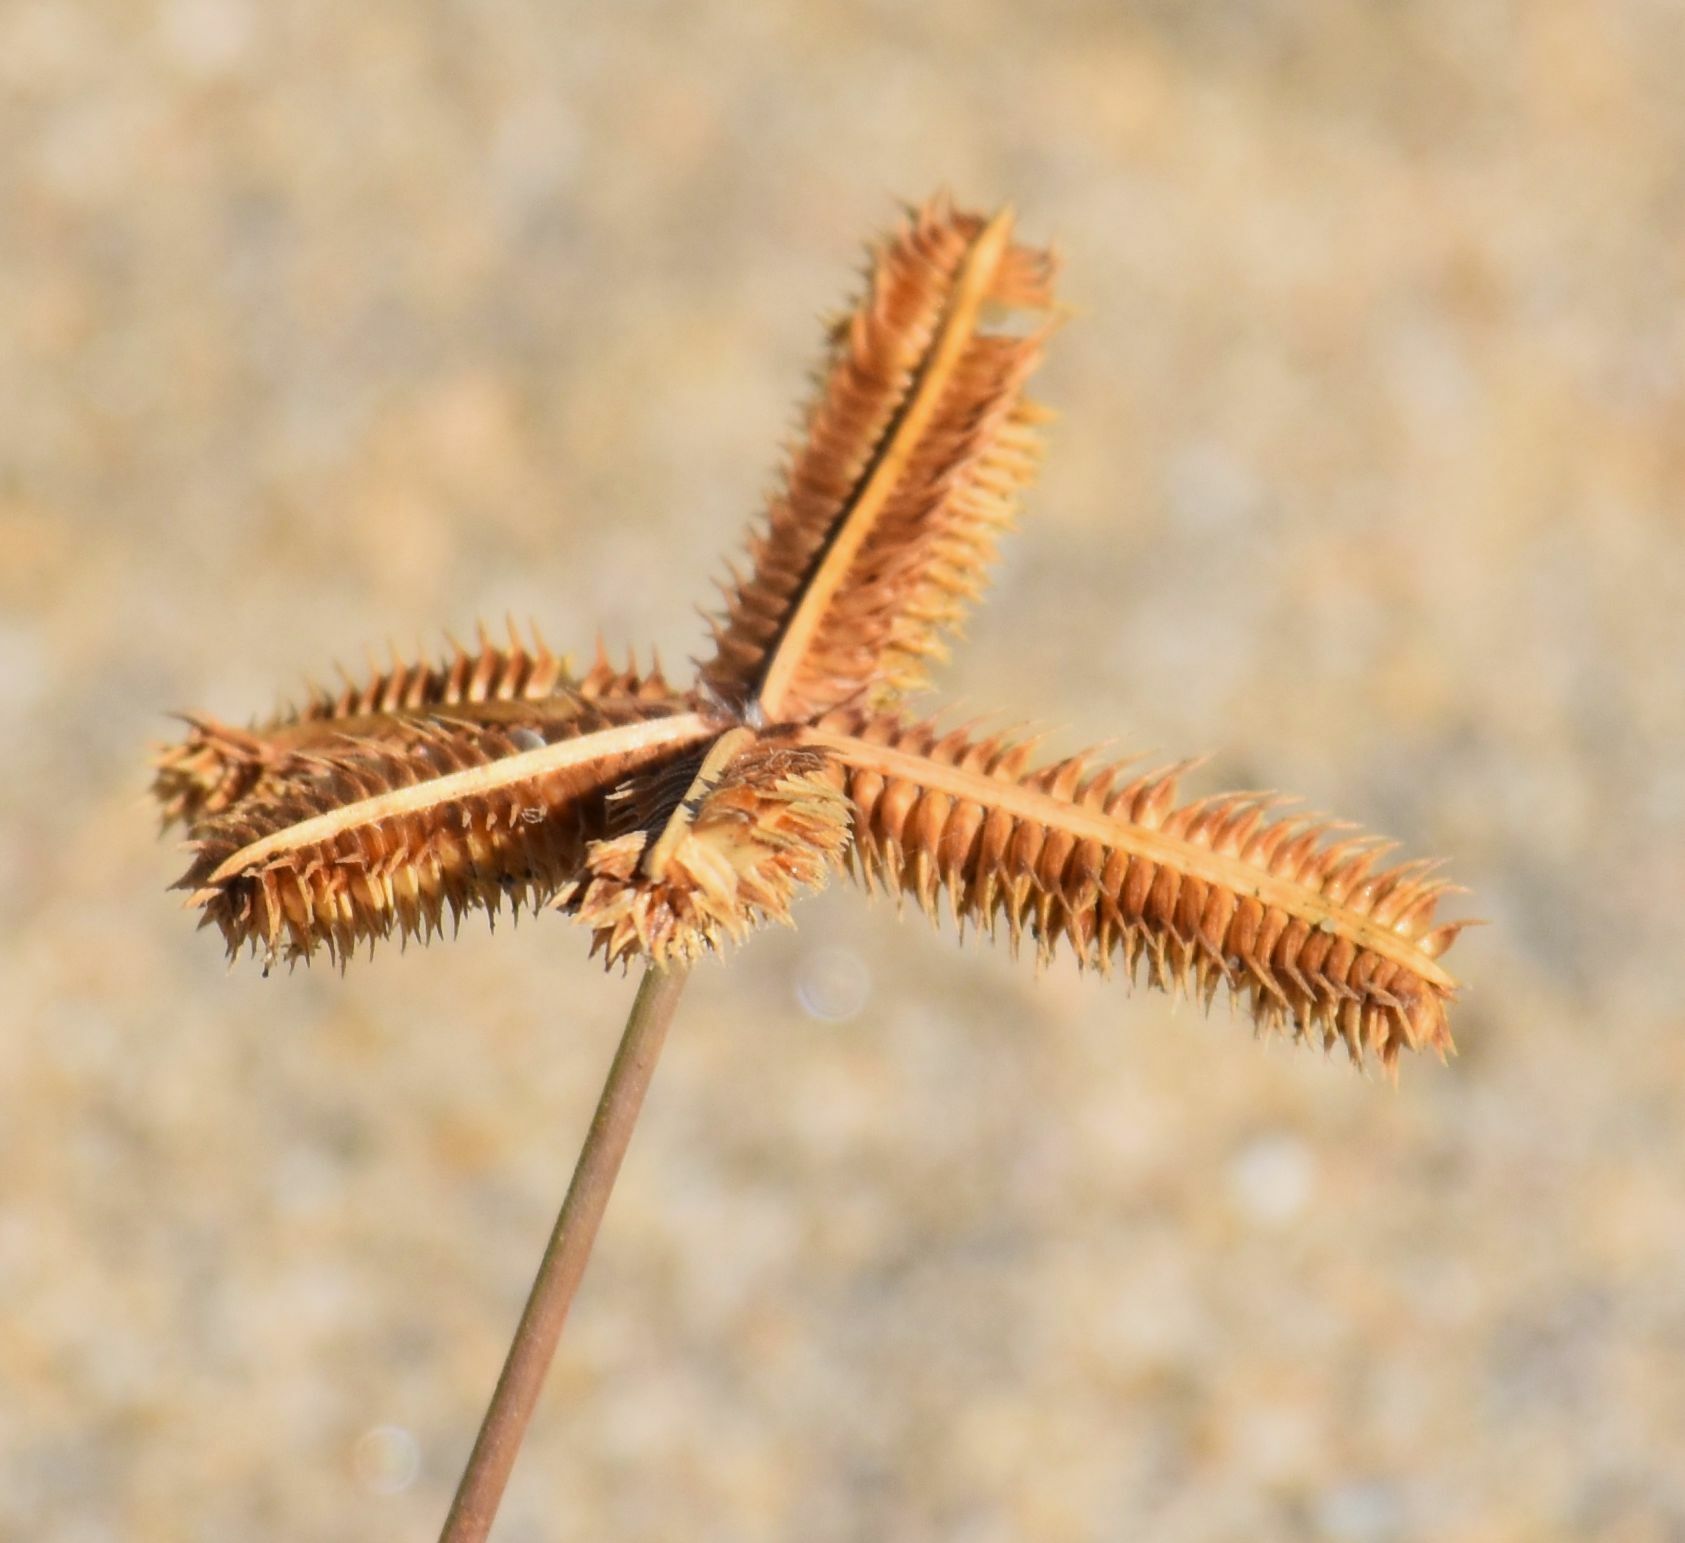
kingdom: Plantae
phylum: Tracheophyta
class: Liliopsida
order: Poales
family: Poaceae
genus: Dactyloctenium
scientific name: Dactyloctenium aegyptium
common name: Egyptian grass
